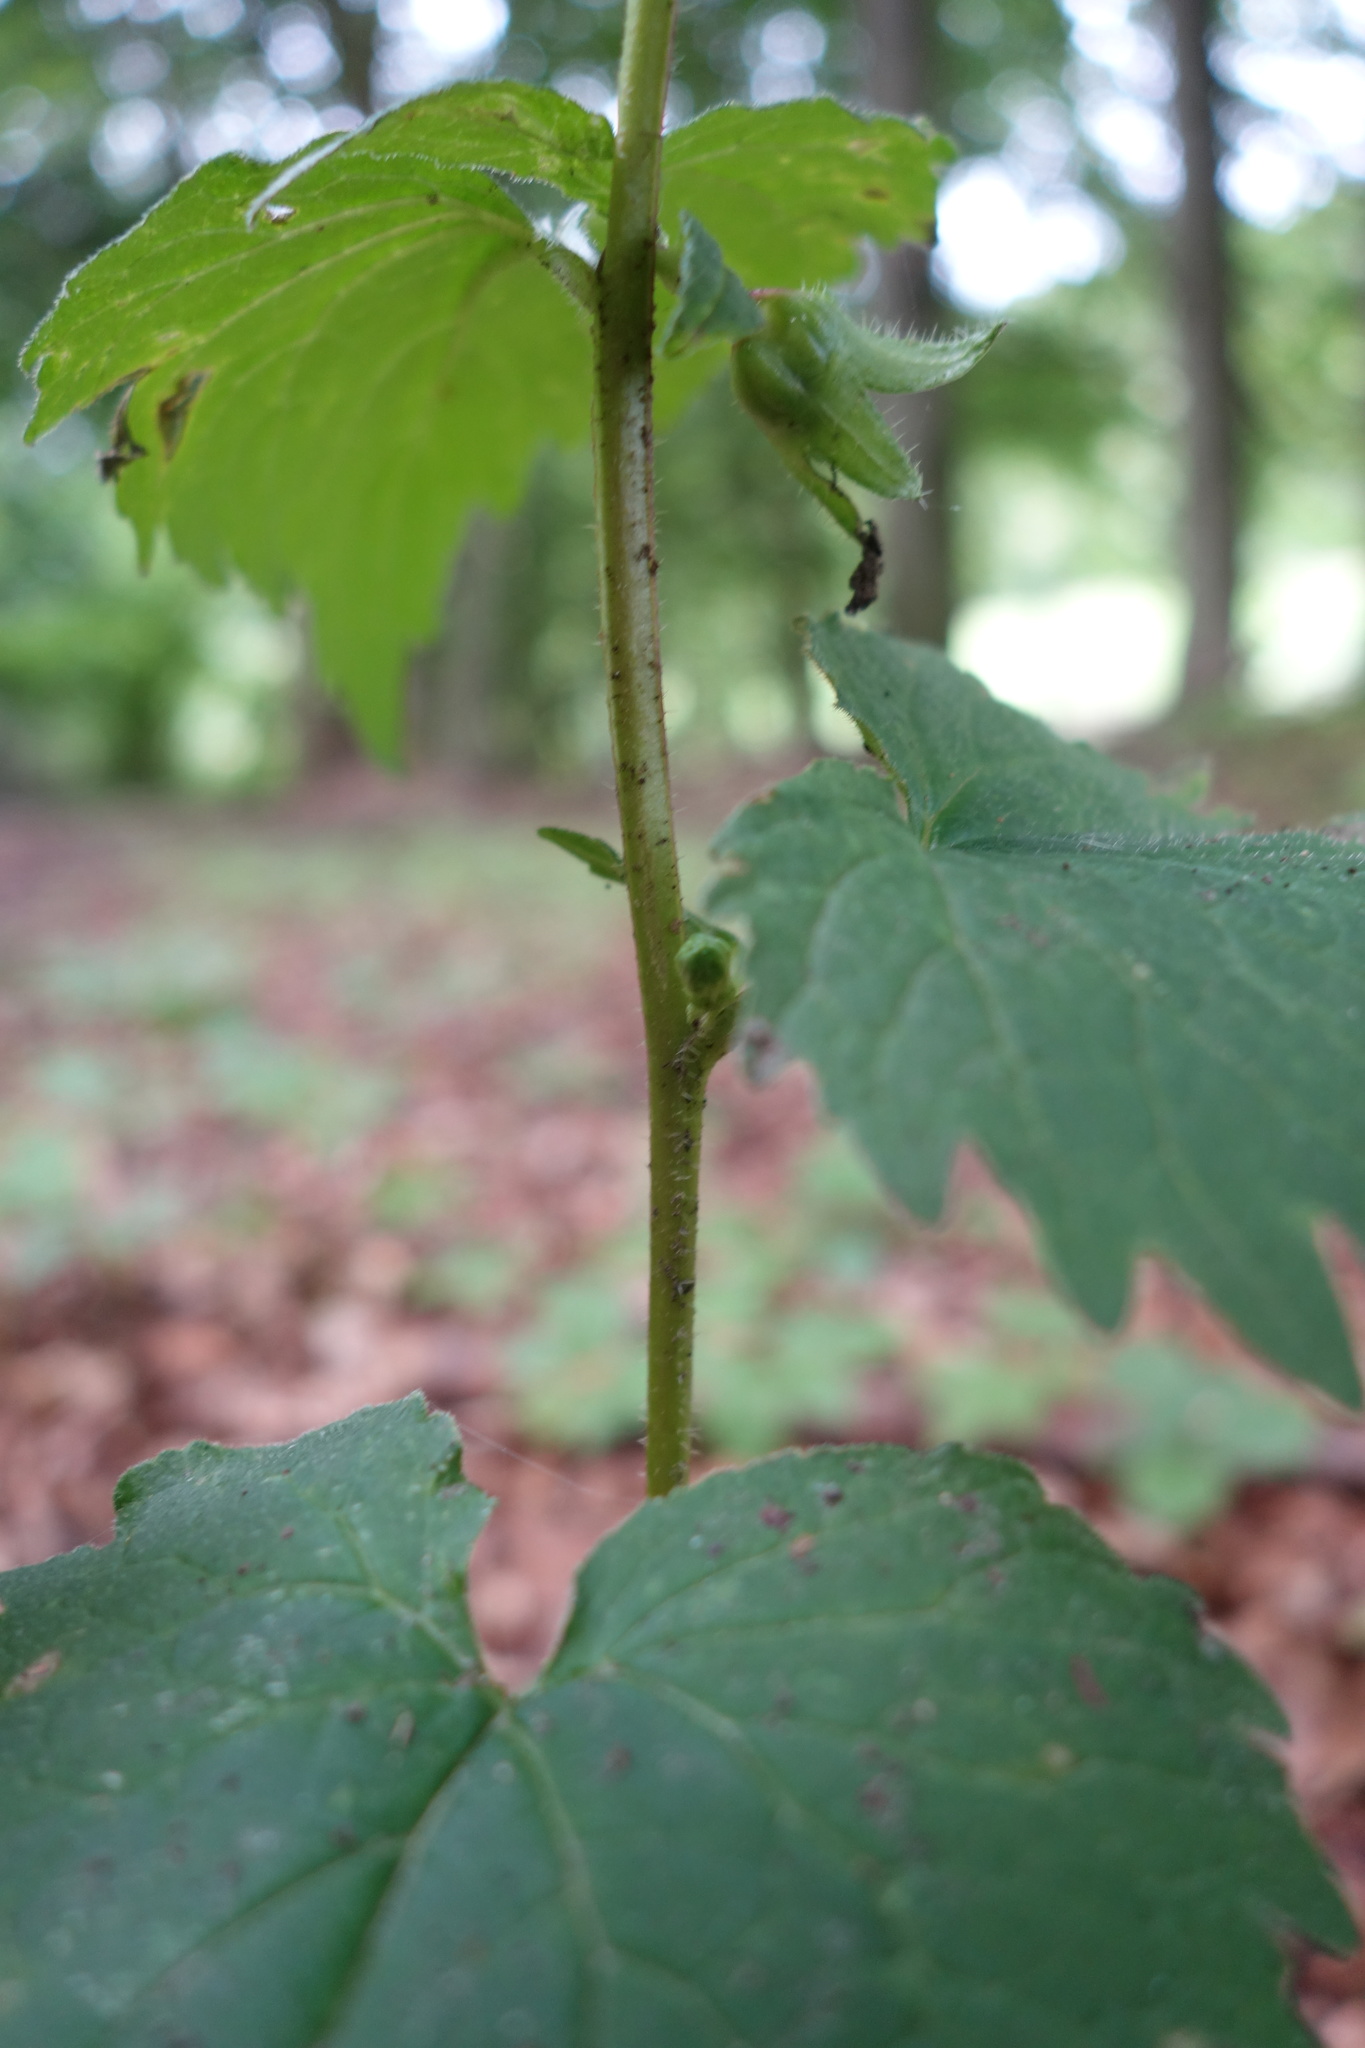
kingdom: Plantae
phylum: Tracheophyta
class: Magnoliopsida
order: Asterales
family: Campanulaceae
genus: Campanula
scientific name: Campanula trachelium
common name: Nettle-leaved bellflower
